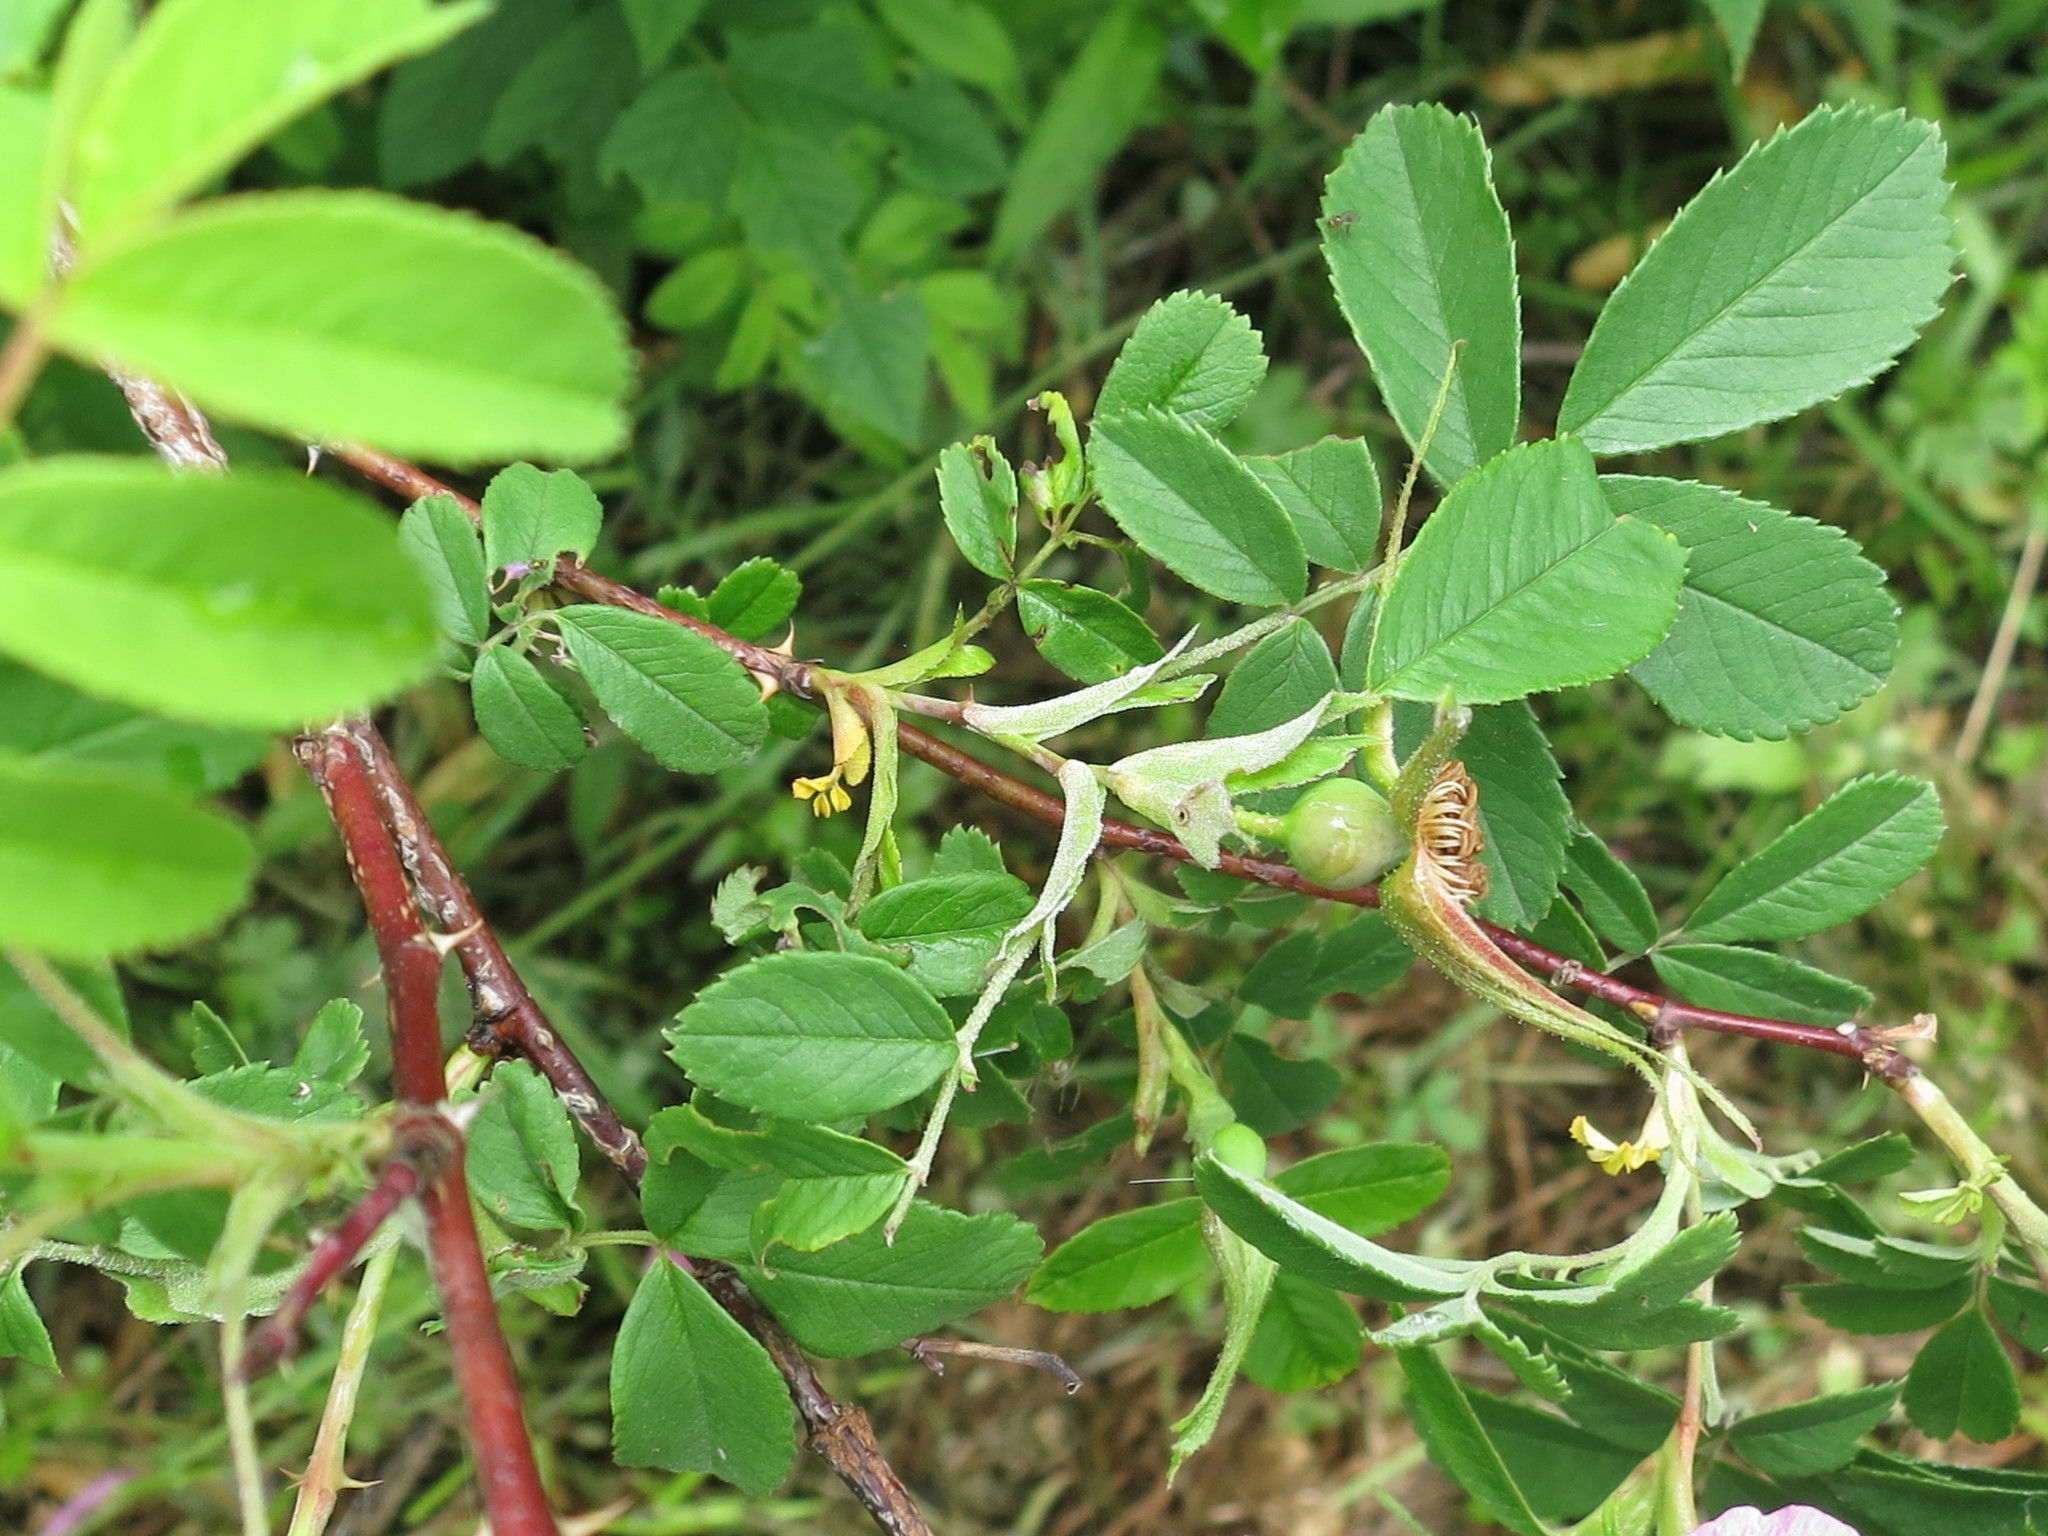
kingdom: Plantae
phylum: Tracheophyta
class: Magnoliopsida
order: Rosales
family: Rosaceae
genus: Rosa
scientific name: Rosa davurica
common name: Amur rose
